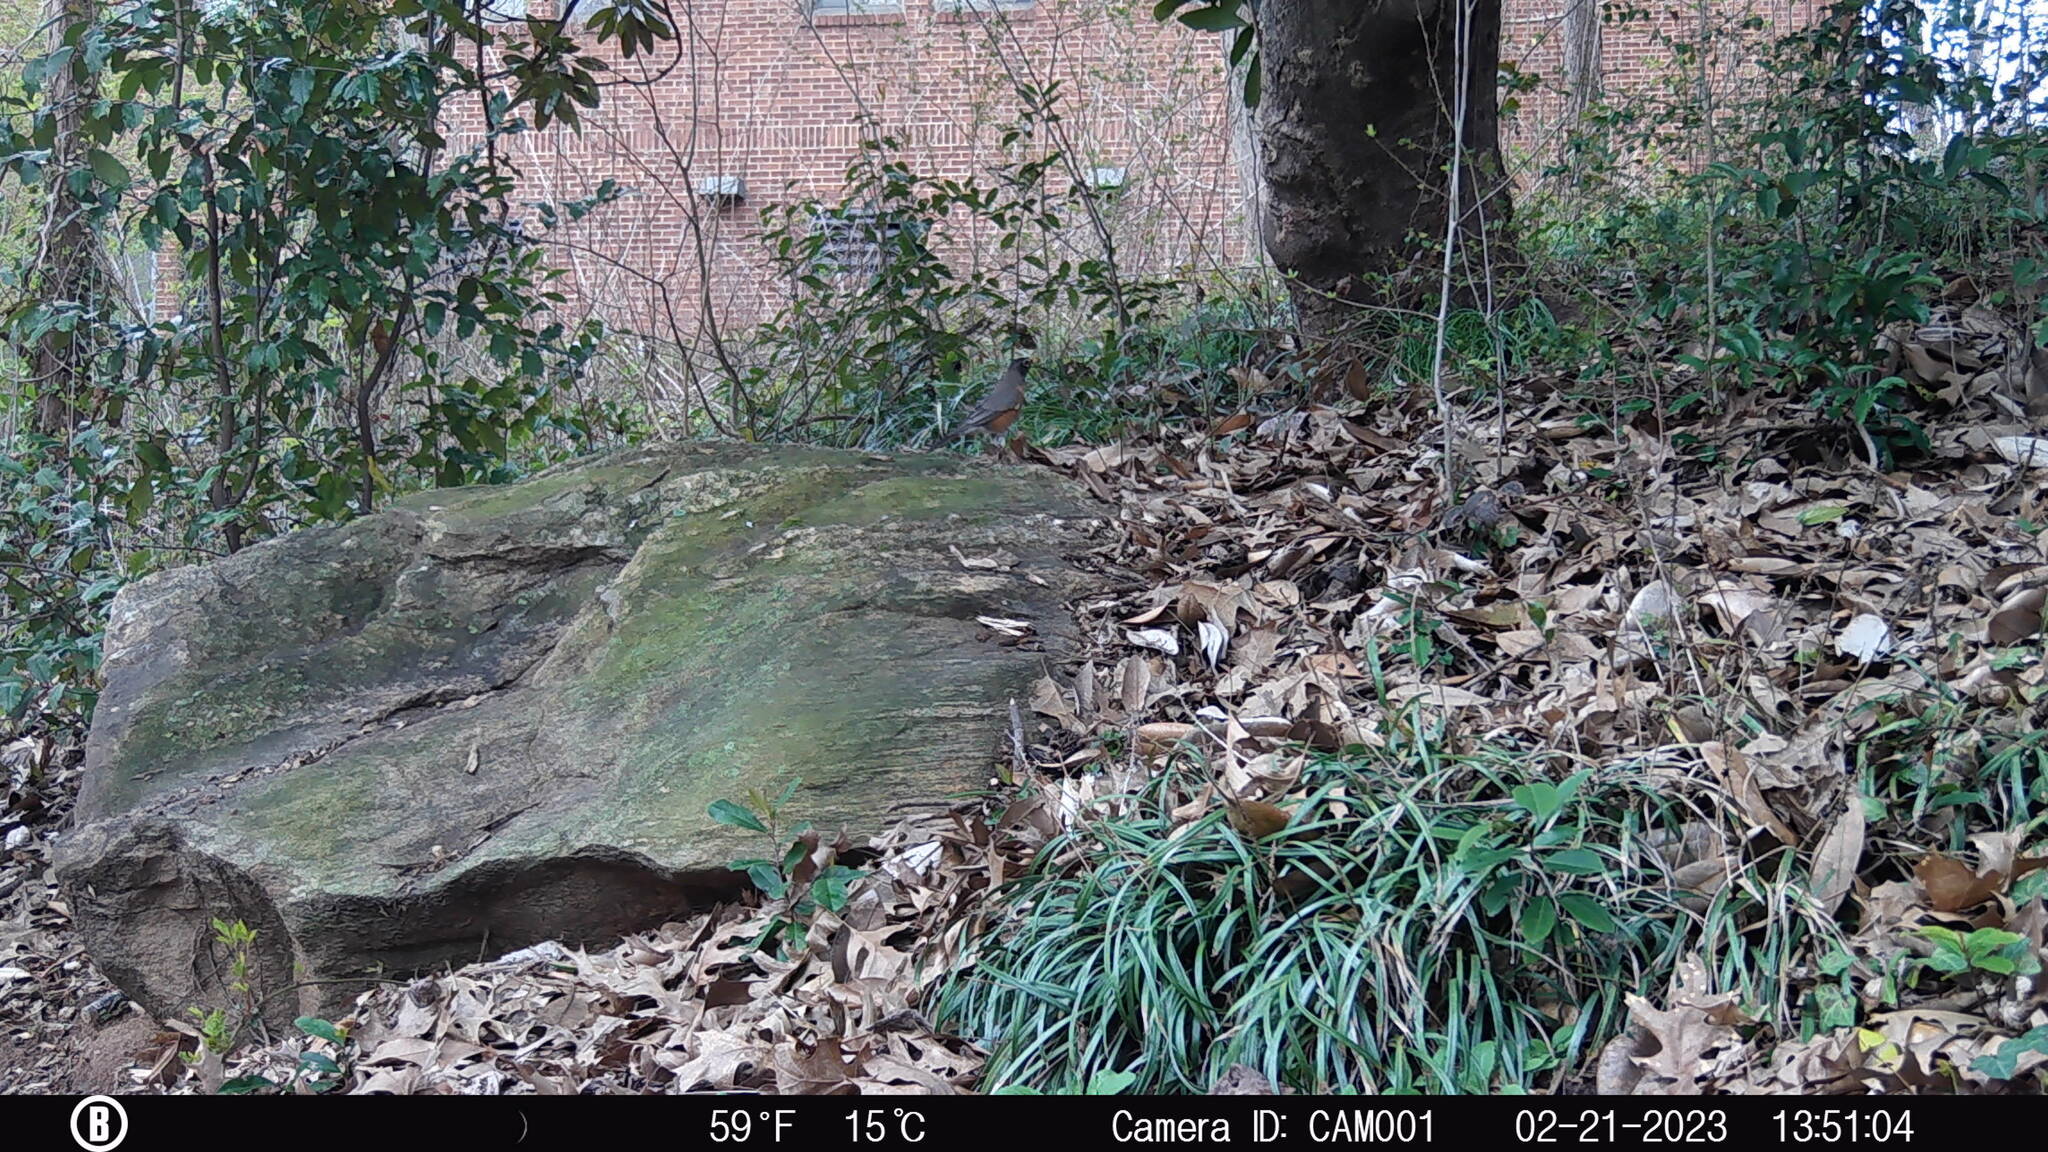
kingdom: Animalia
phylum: Chordata
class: Aves
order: Passeriformes
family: Turdidae
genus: Turdus
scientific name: Turdus migratorius
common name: American robin
